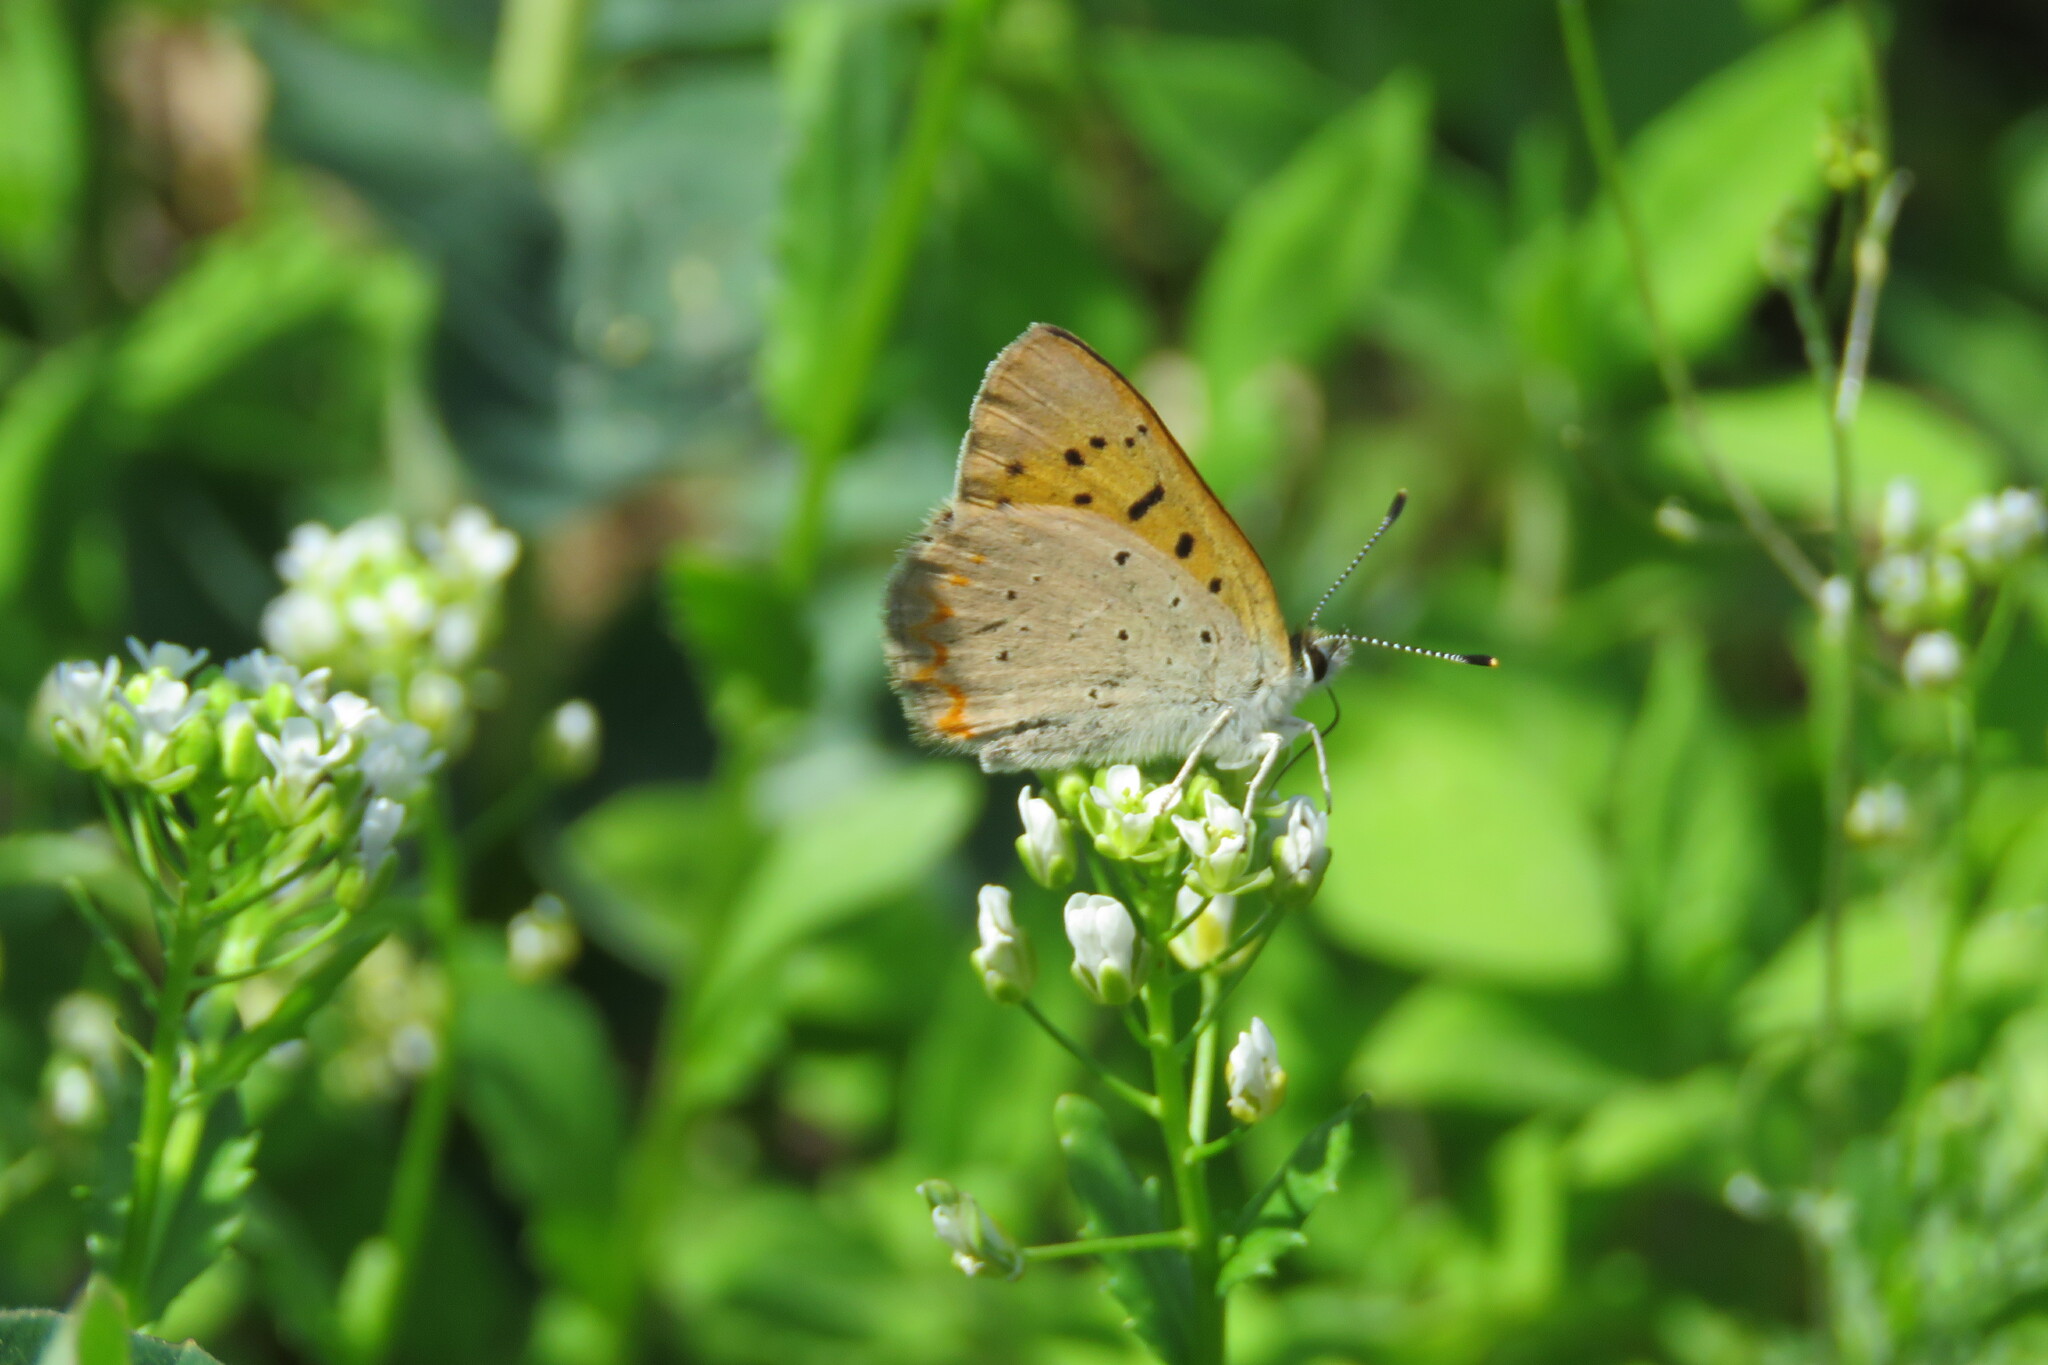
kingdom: Animalia
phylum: Arthropoda
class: Insecta
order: Lepidoptera
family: Lycaenidae
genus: Tharsalea
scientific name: Tharsalea helloides
